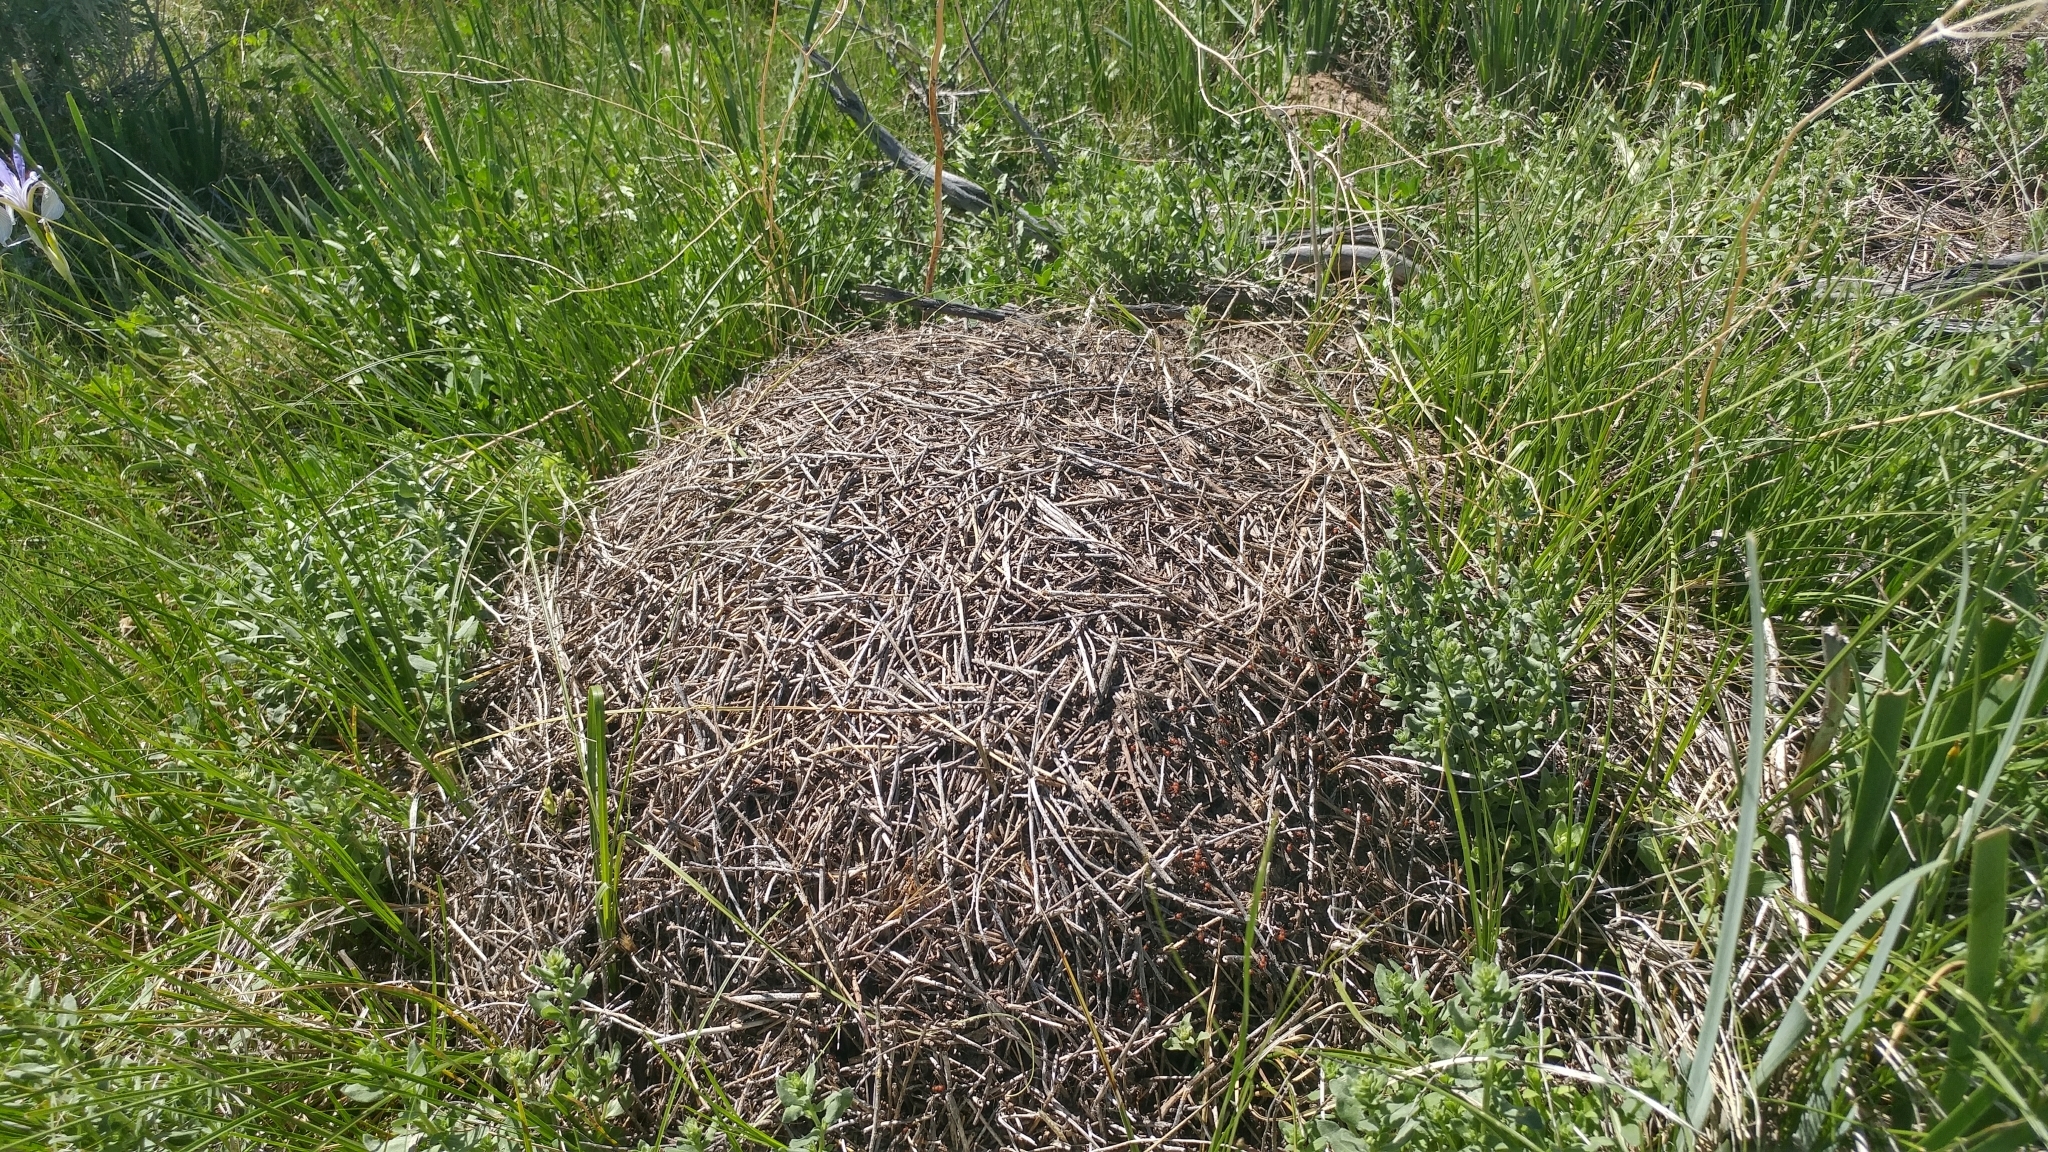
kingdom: Animalia
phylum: Arthropoda
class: Insecta
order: Hymenoptera
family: Formicidae
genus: Formica
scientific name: Formica obscuripes
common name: Western thatching ant
